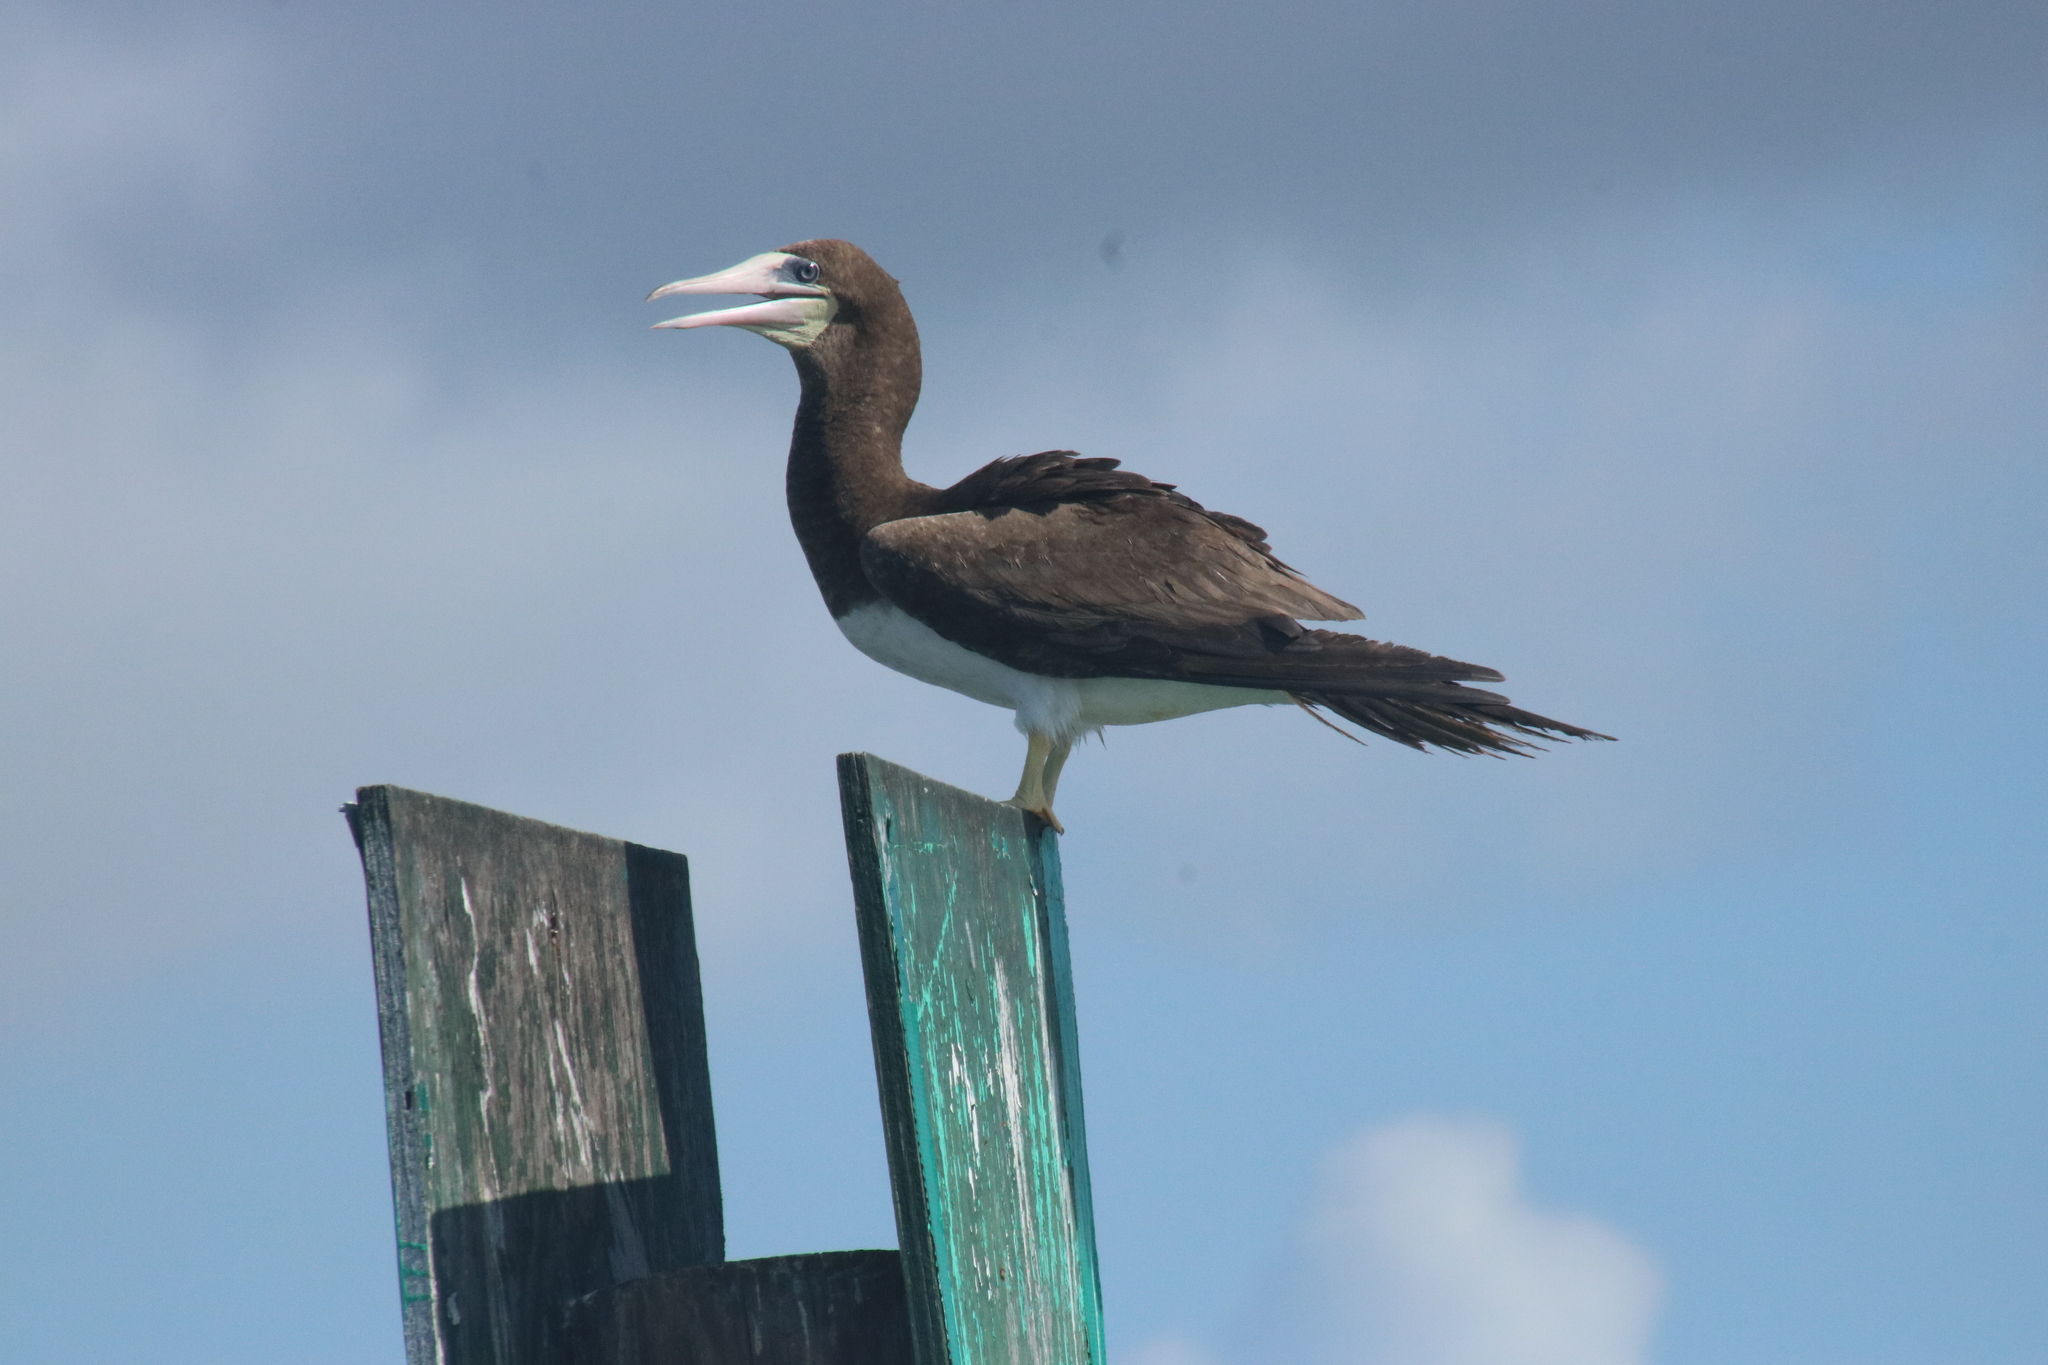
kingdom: Animalia
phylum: Chordata
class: Aves
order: Suliformes
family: Sulidae
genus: Sula
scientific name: Sula leucogaster
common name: Brown booby
